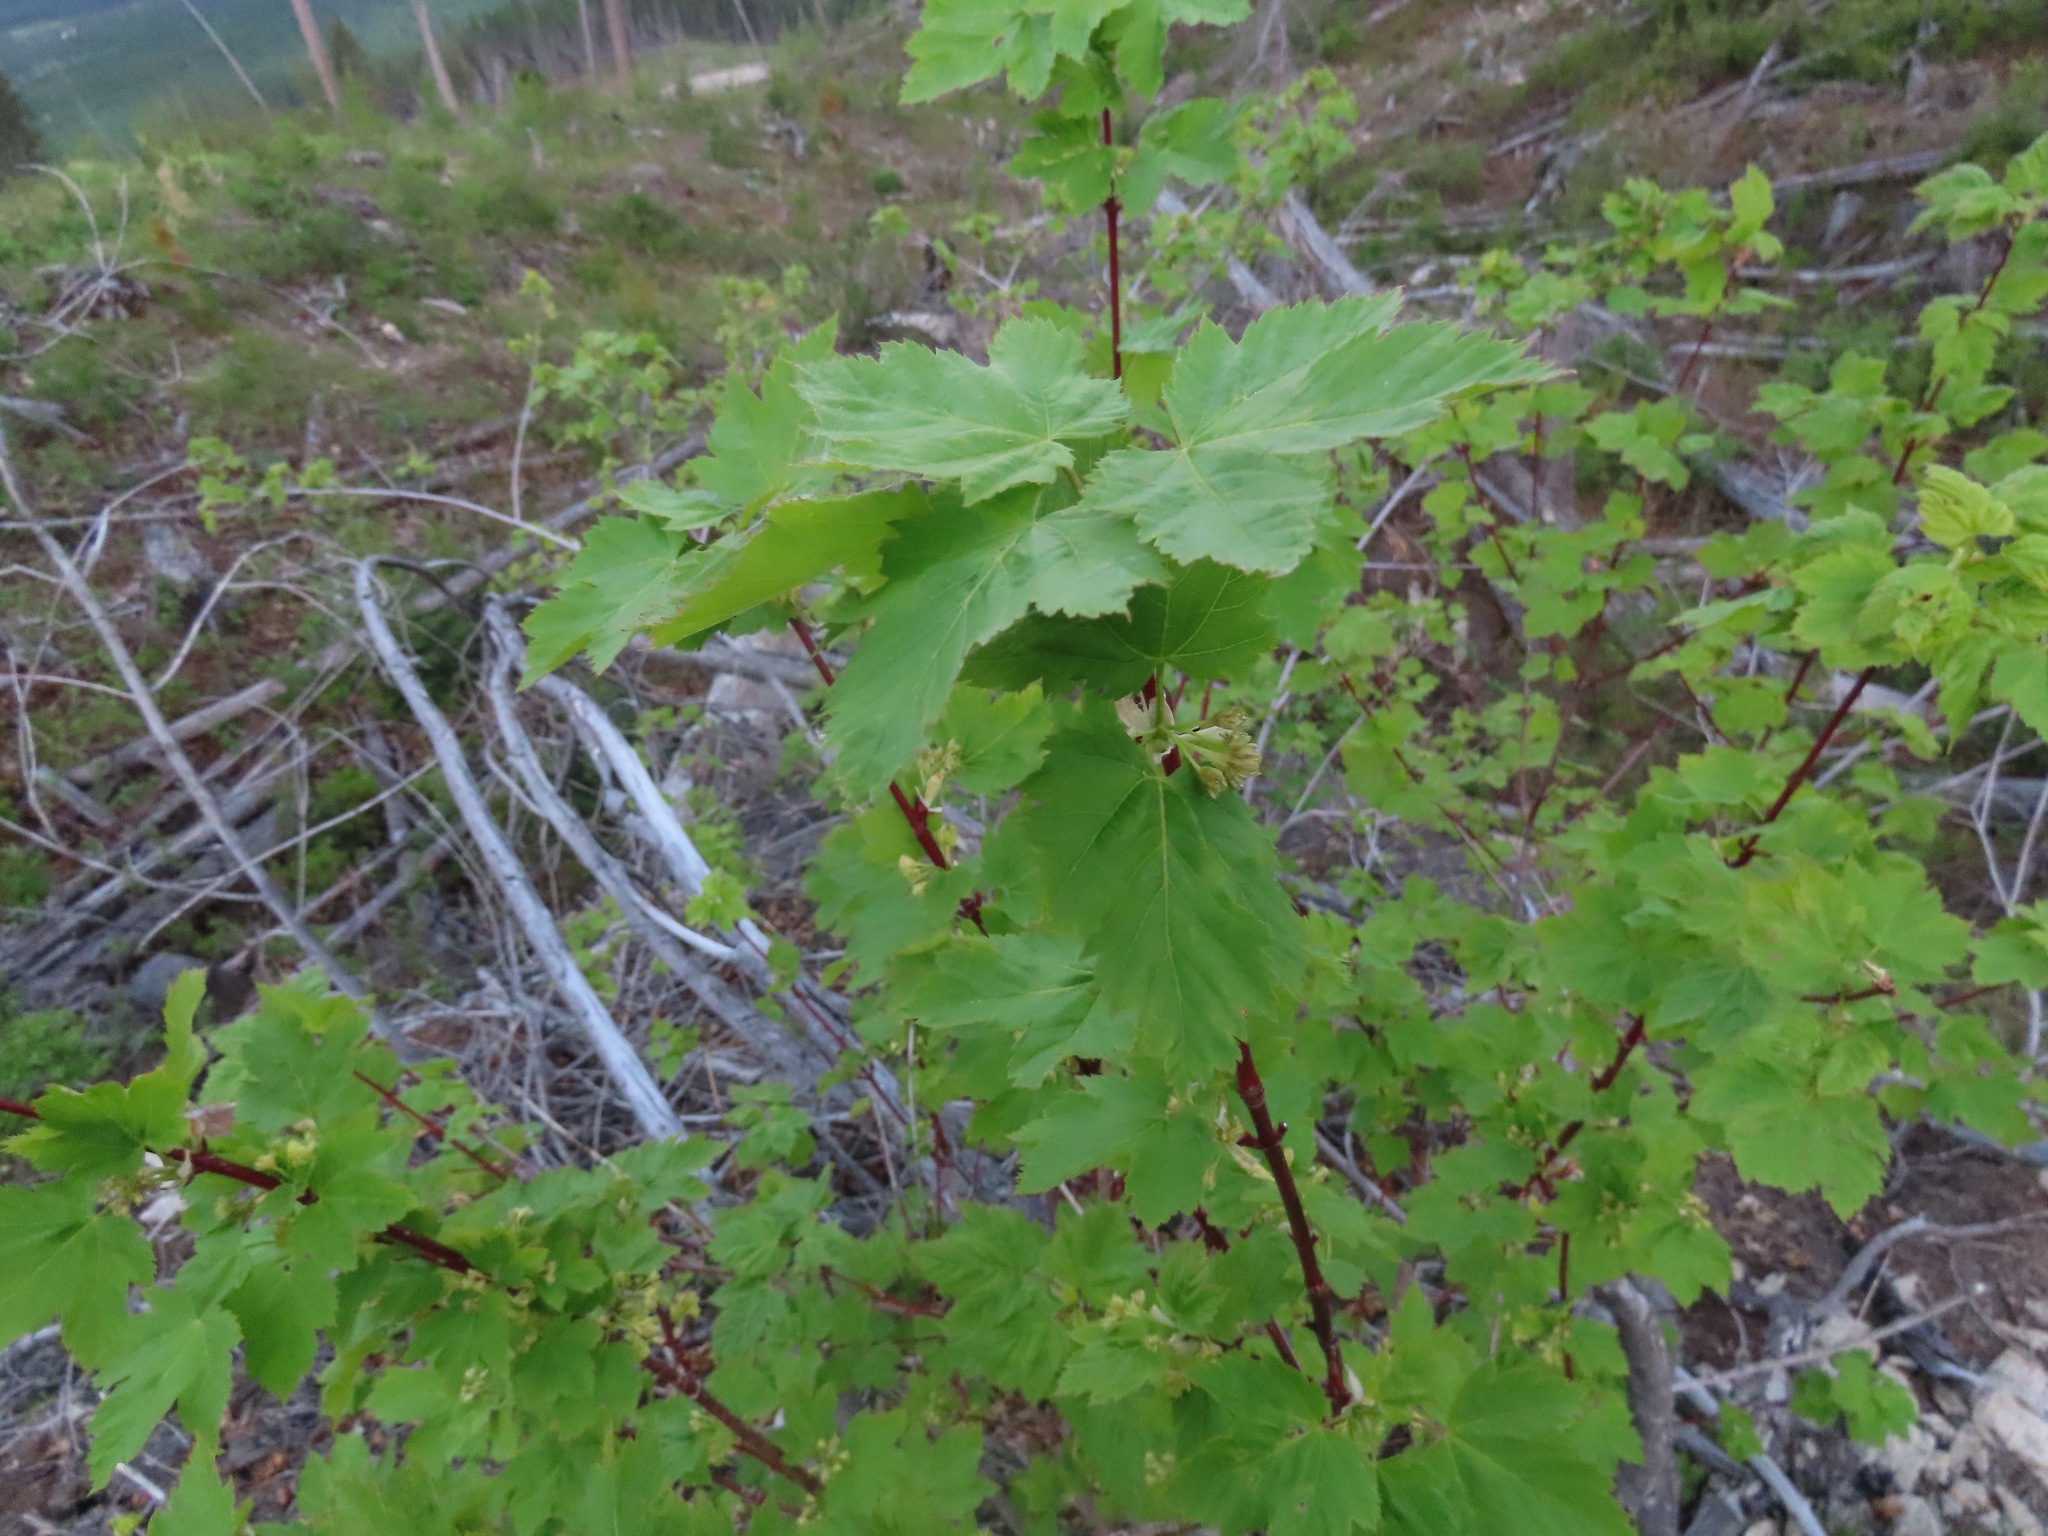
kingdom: Plantae
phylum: Tracheophyta
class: Magnoliopsida
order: Sapindales
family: Sapindaceae
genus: Acer
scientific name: Acer glabrum
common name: Rocky mountain maple
